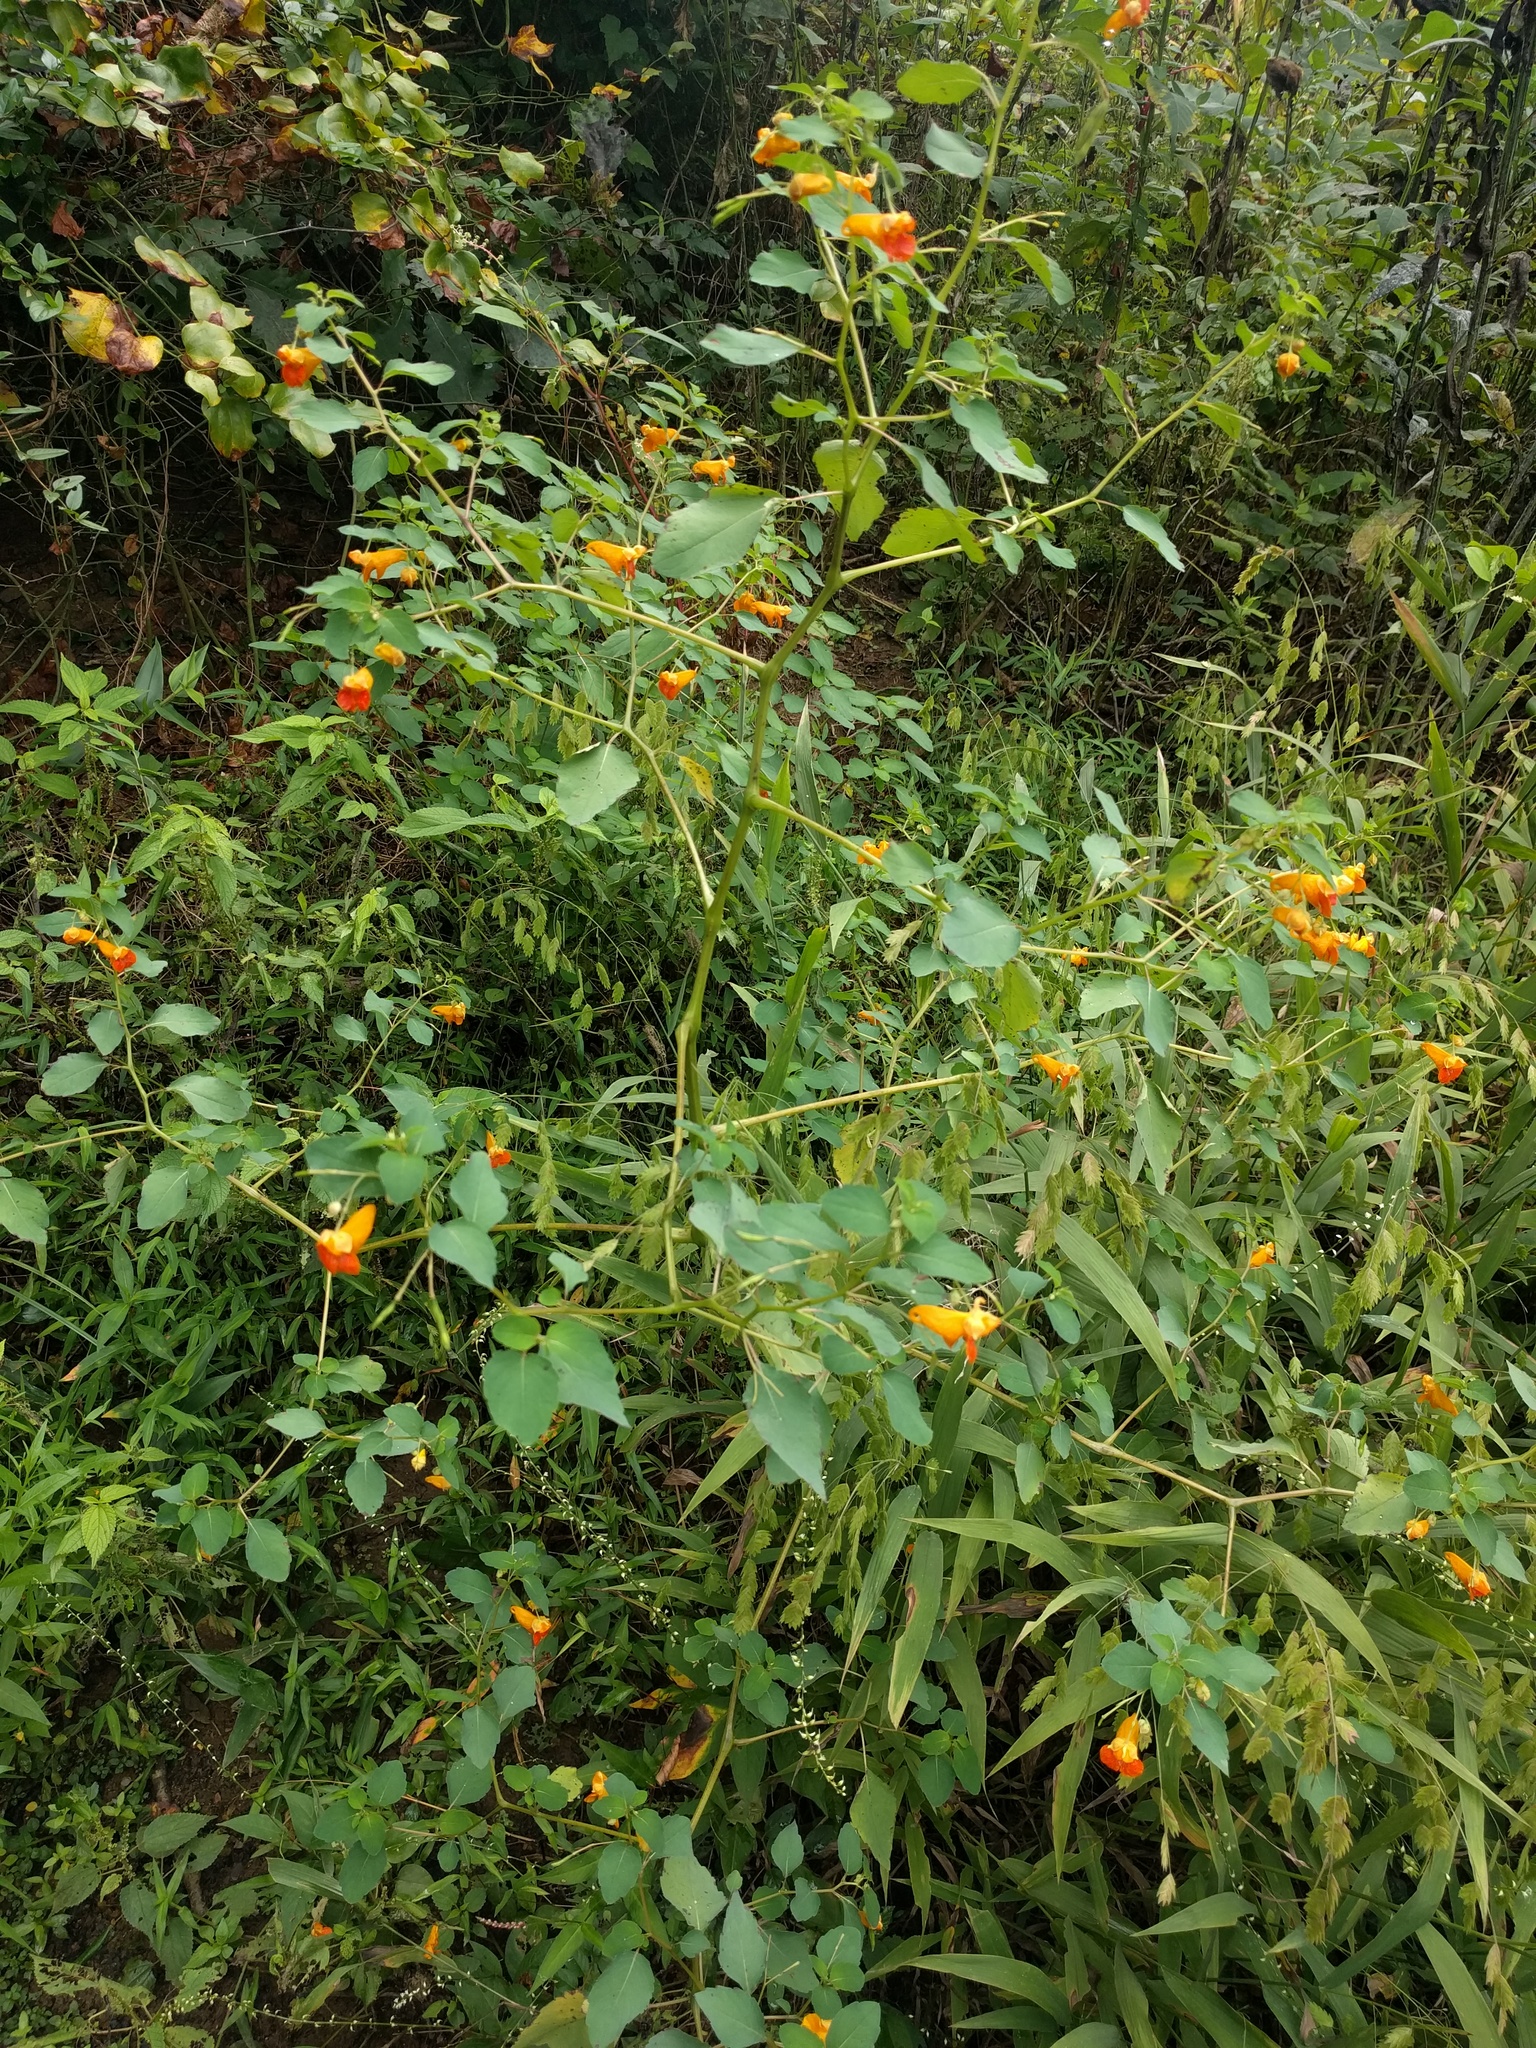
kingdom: Plantae
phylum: Tracheophyta
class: Magnoliopsida
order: Ericales
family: Balsaminaceae
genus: Impatiens
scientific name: Impatiens capensis
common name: Orange balsam
